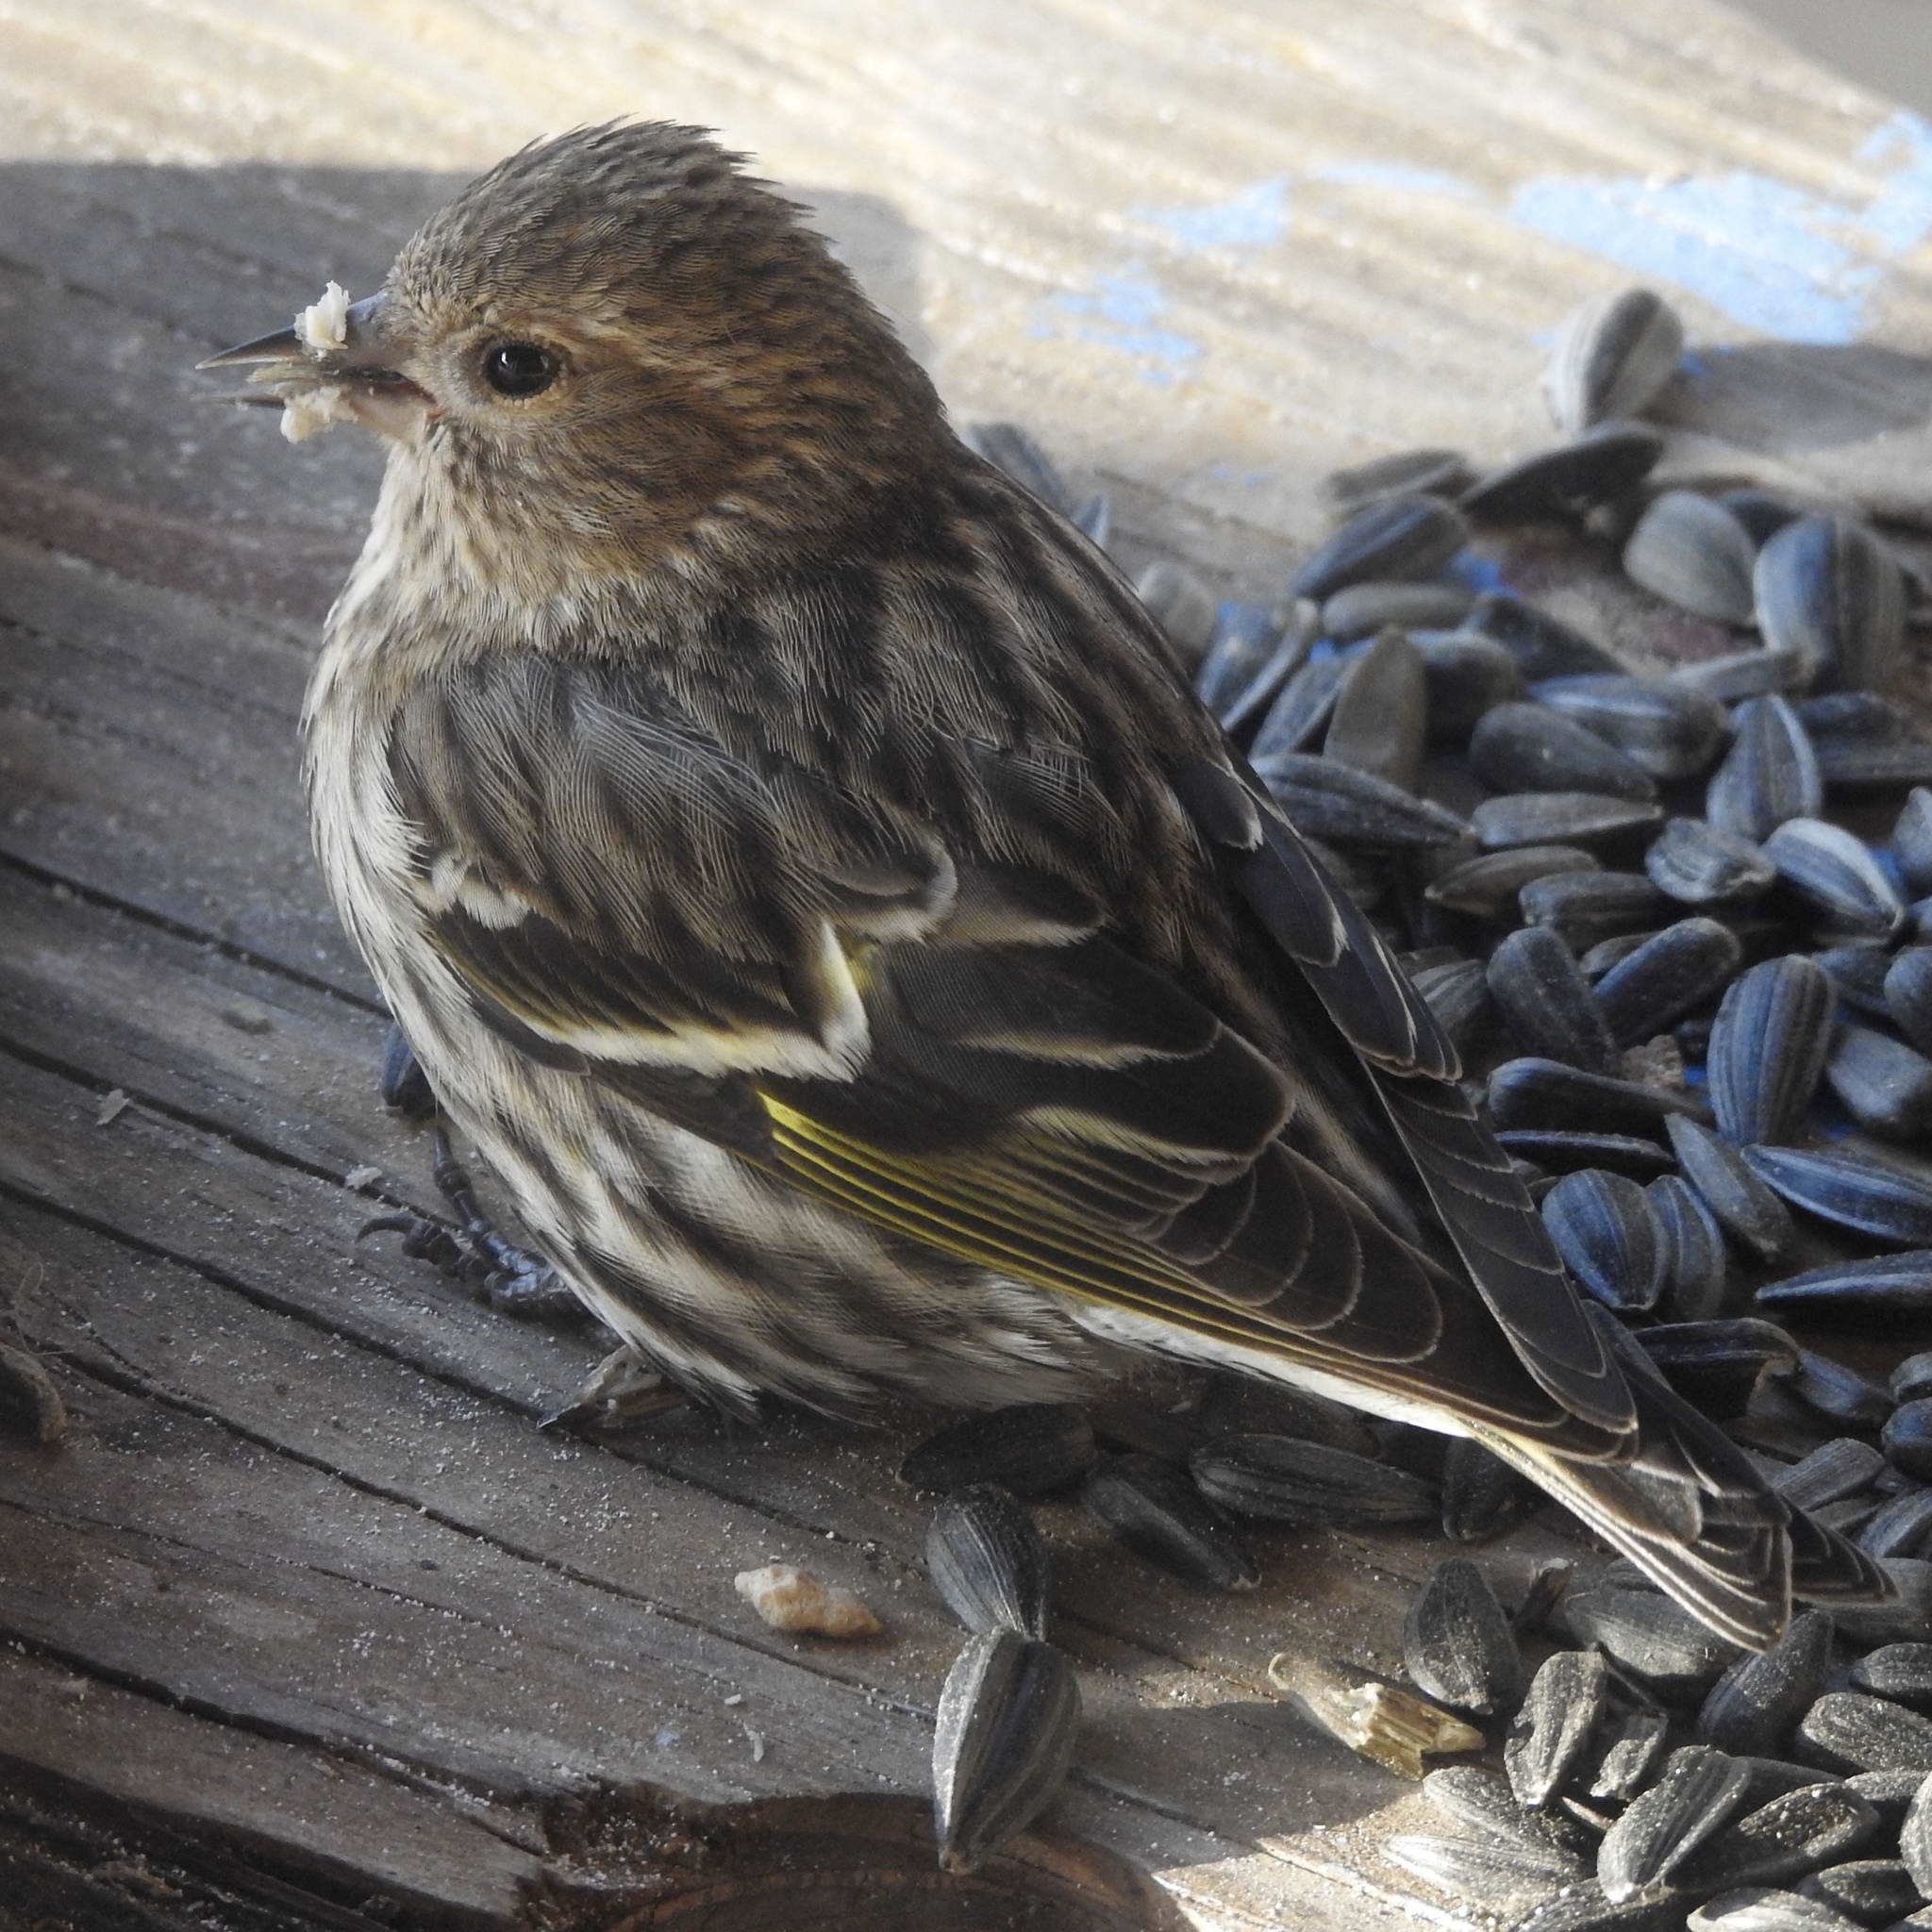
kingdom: Animalia
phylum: Chordata
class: Aves
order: Passeriformes
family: Fringillidae
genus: Spinus
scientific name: Spinus pinus
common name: Pine siskin
